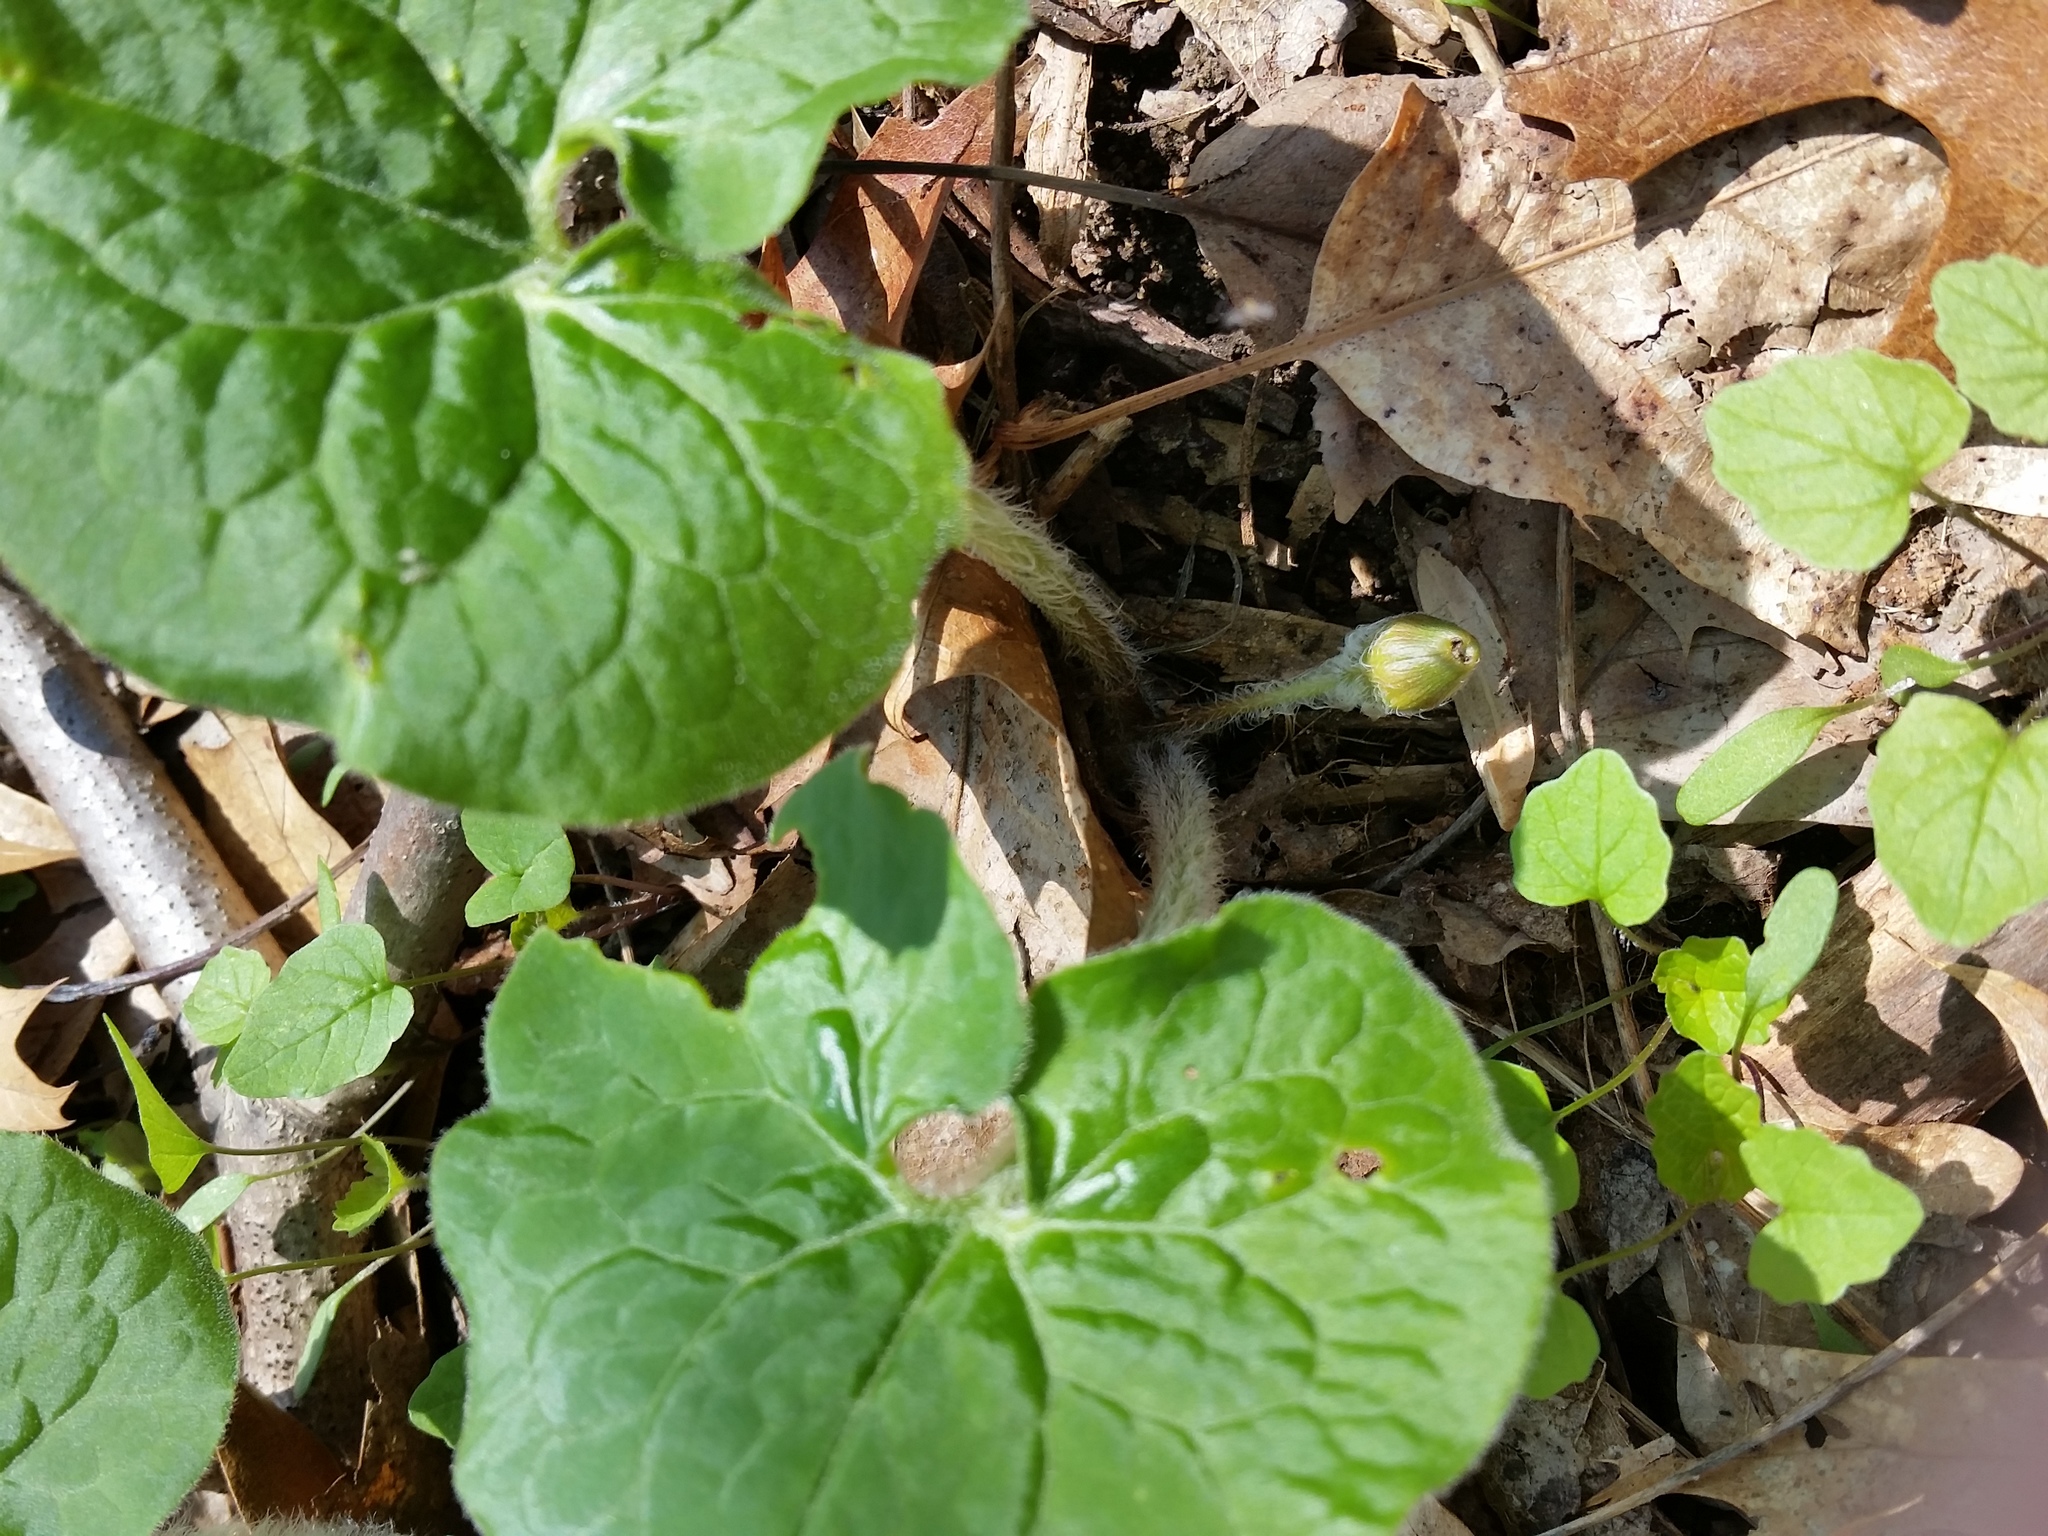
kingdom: Plantae
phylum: Tracheophyta
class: Magnoliopsida
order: Piperales
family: Aristolochiaceae
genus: Asarum
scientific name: Asarum canadense
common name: Wild ginger
